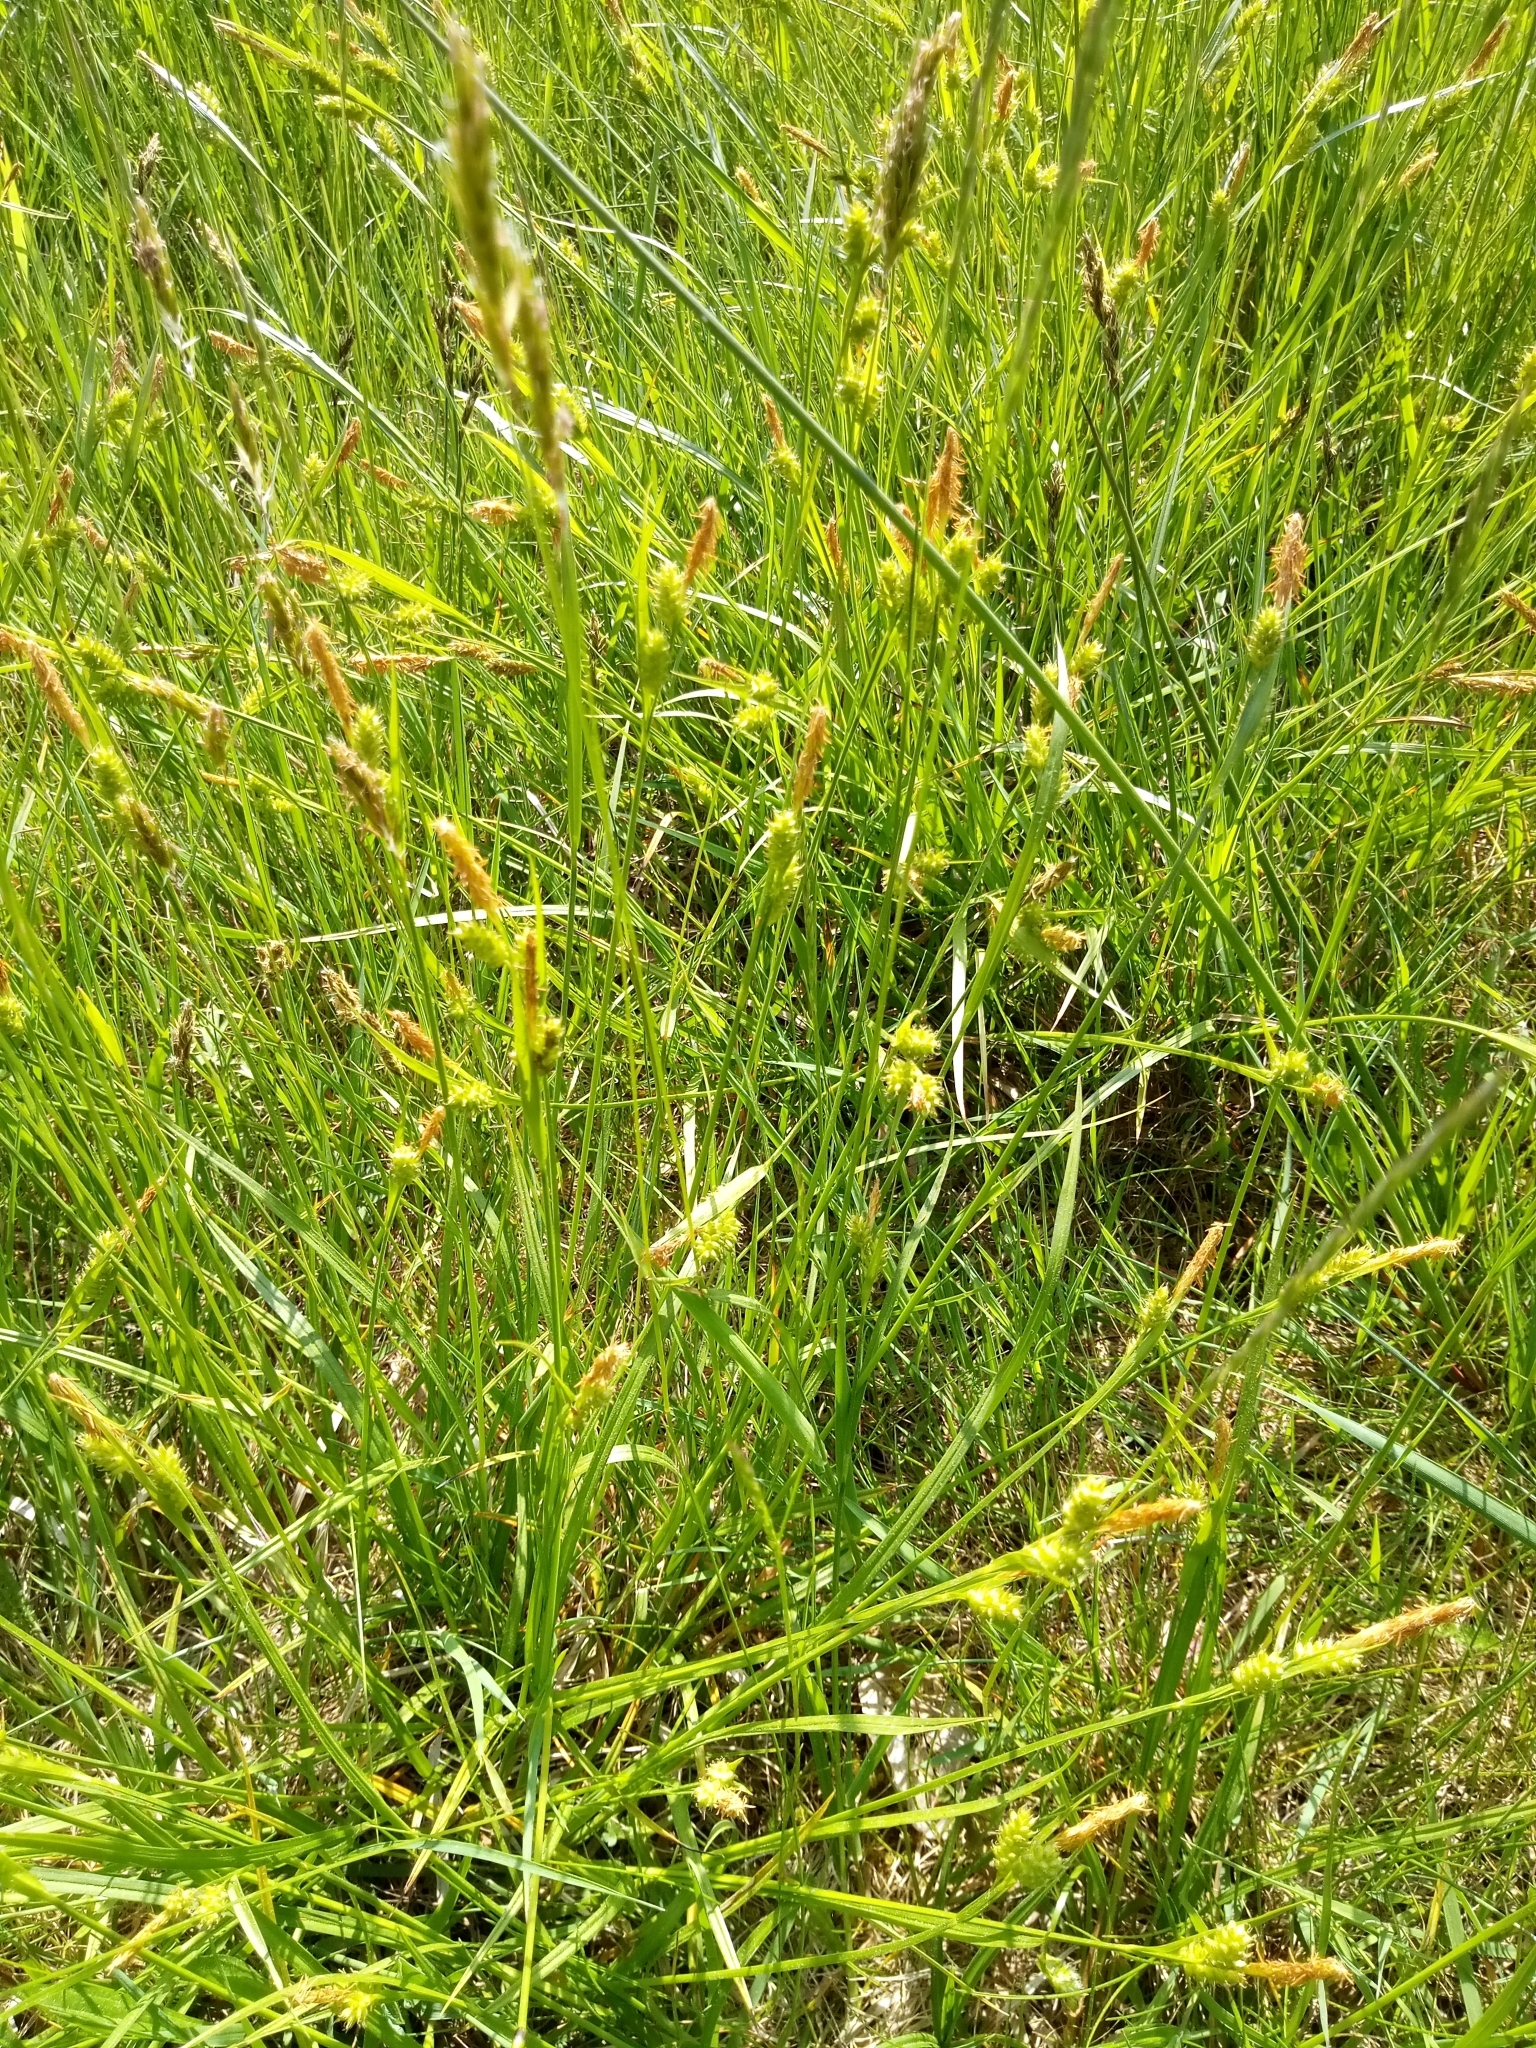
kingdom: Plantae
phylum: Tracheophyta
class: Liliopsida
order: Poales
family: Cyperaceae
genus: Carex
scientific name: Carex pallescens
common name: Pale sedge
